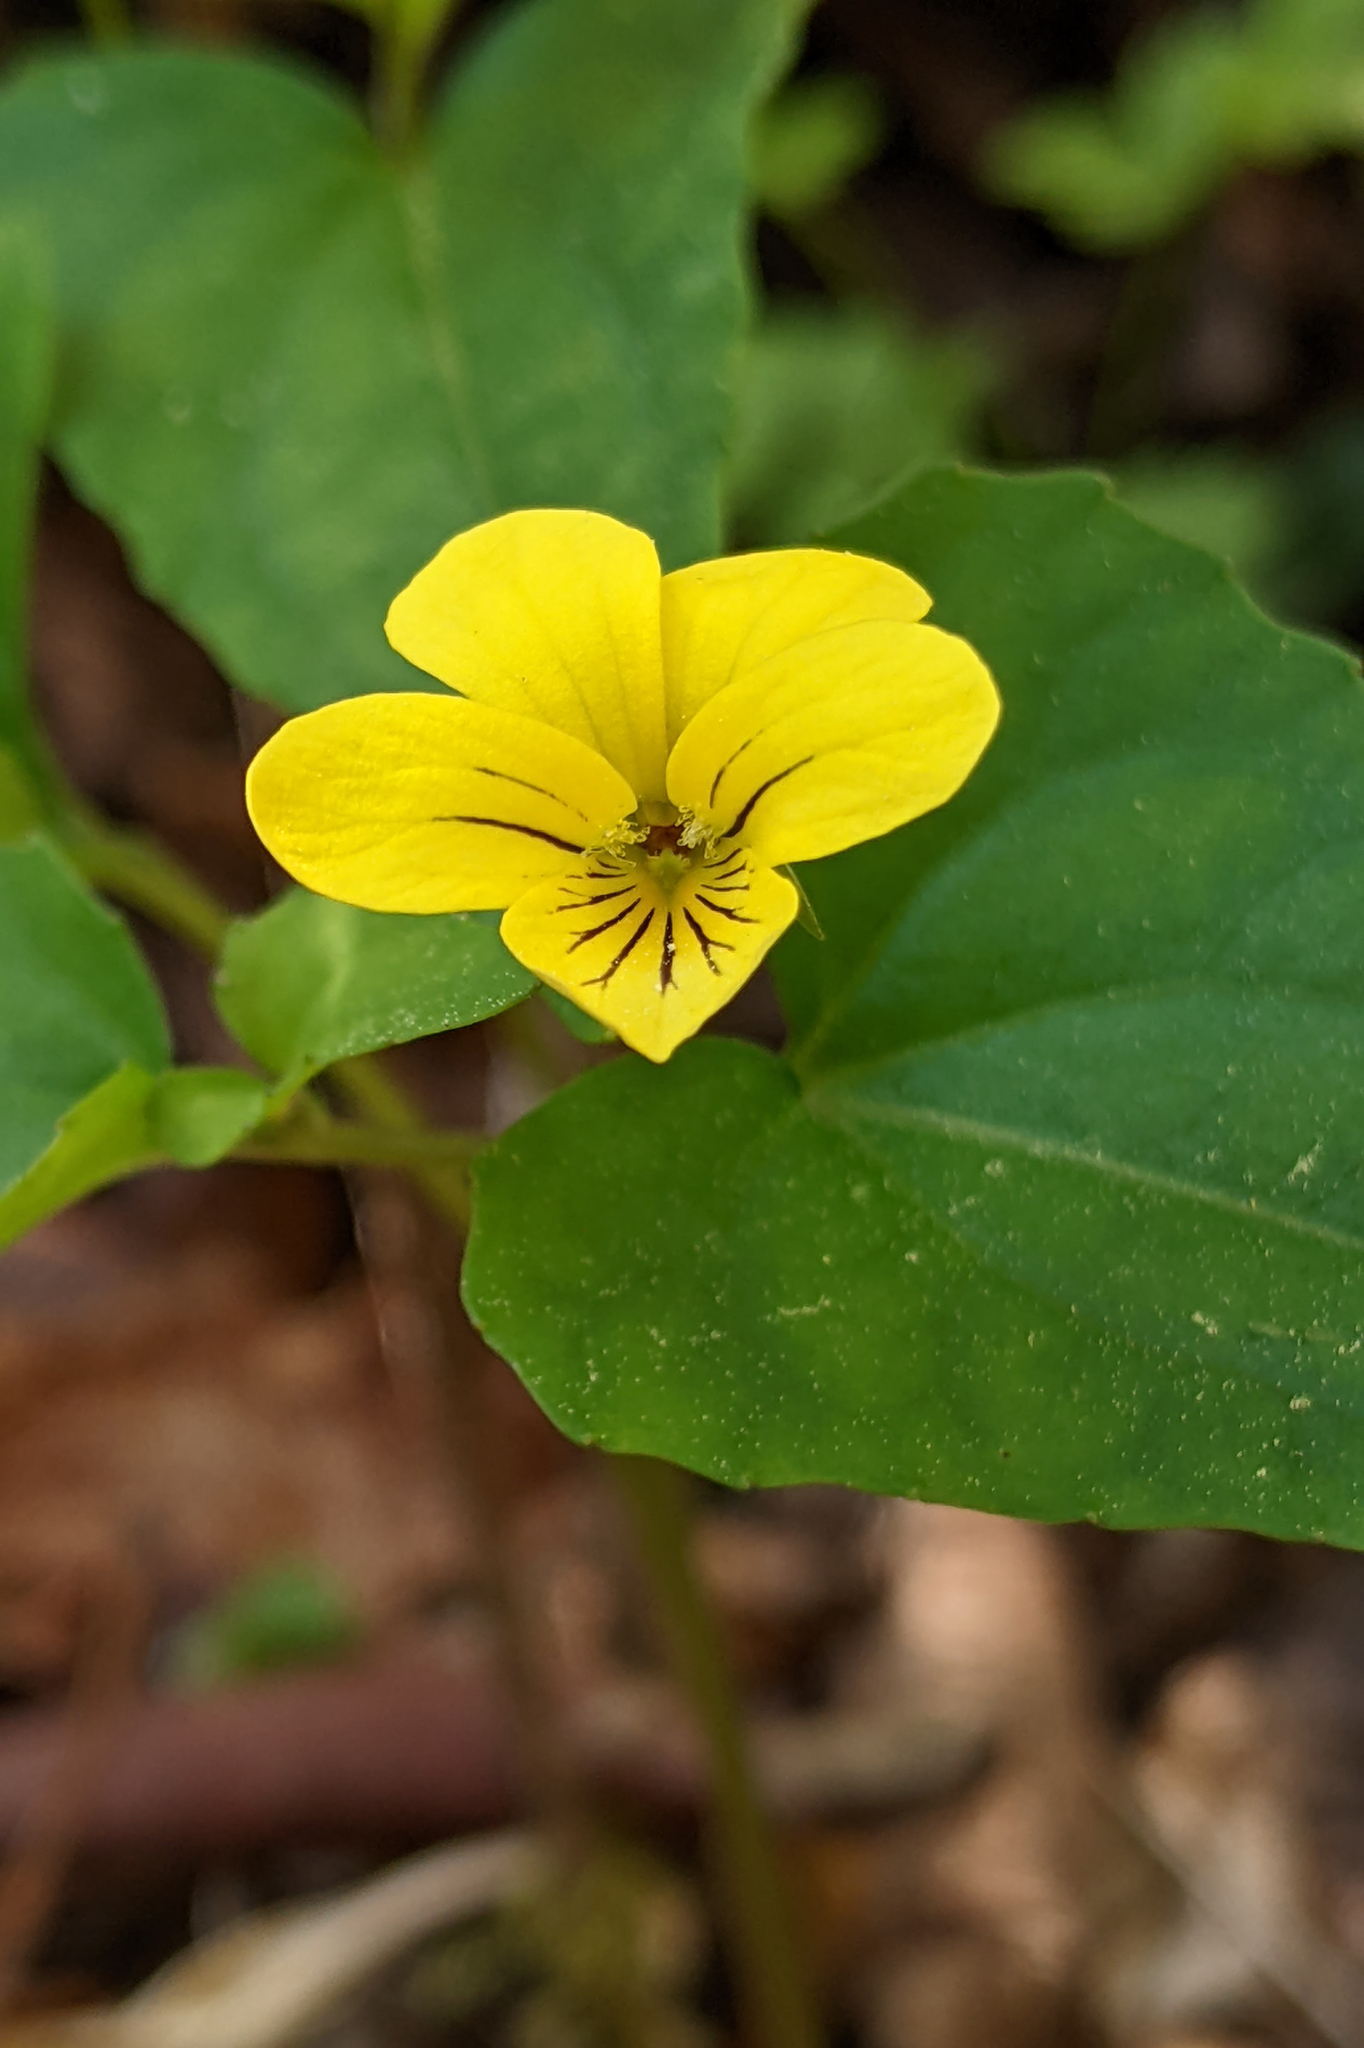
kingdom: Plantae
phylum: Tracheophyta
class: Magnoliopsida
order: Malpighiales
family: Violaceae
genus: Viola
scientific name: Viola hastata
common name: Spear-leaf violet
